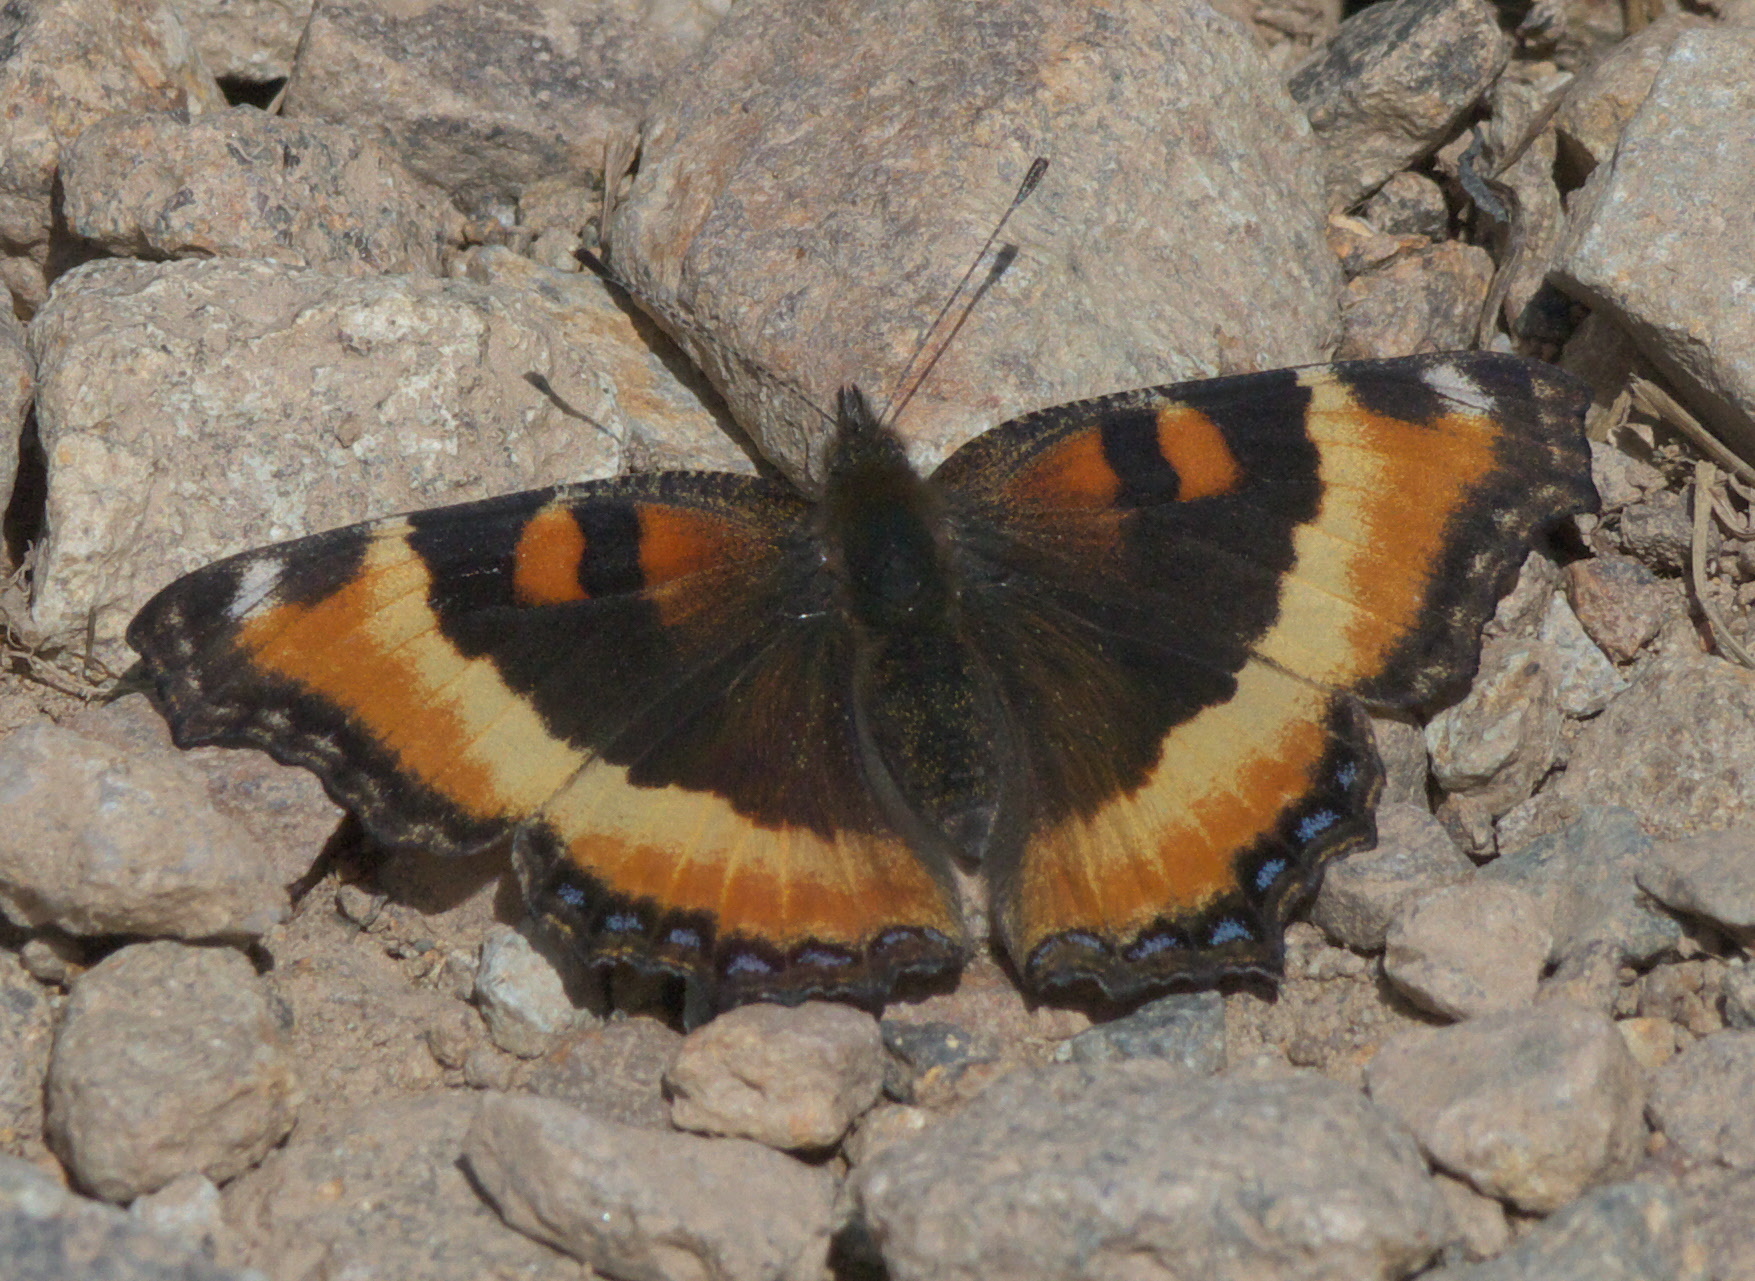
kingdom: Animalia
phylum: Arthropoda
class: Insecta
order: Lepidoptera
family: Nymphalidae
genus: Aglais
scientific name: Aglais milberti
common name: Milbert's tortoiseshell
